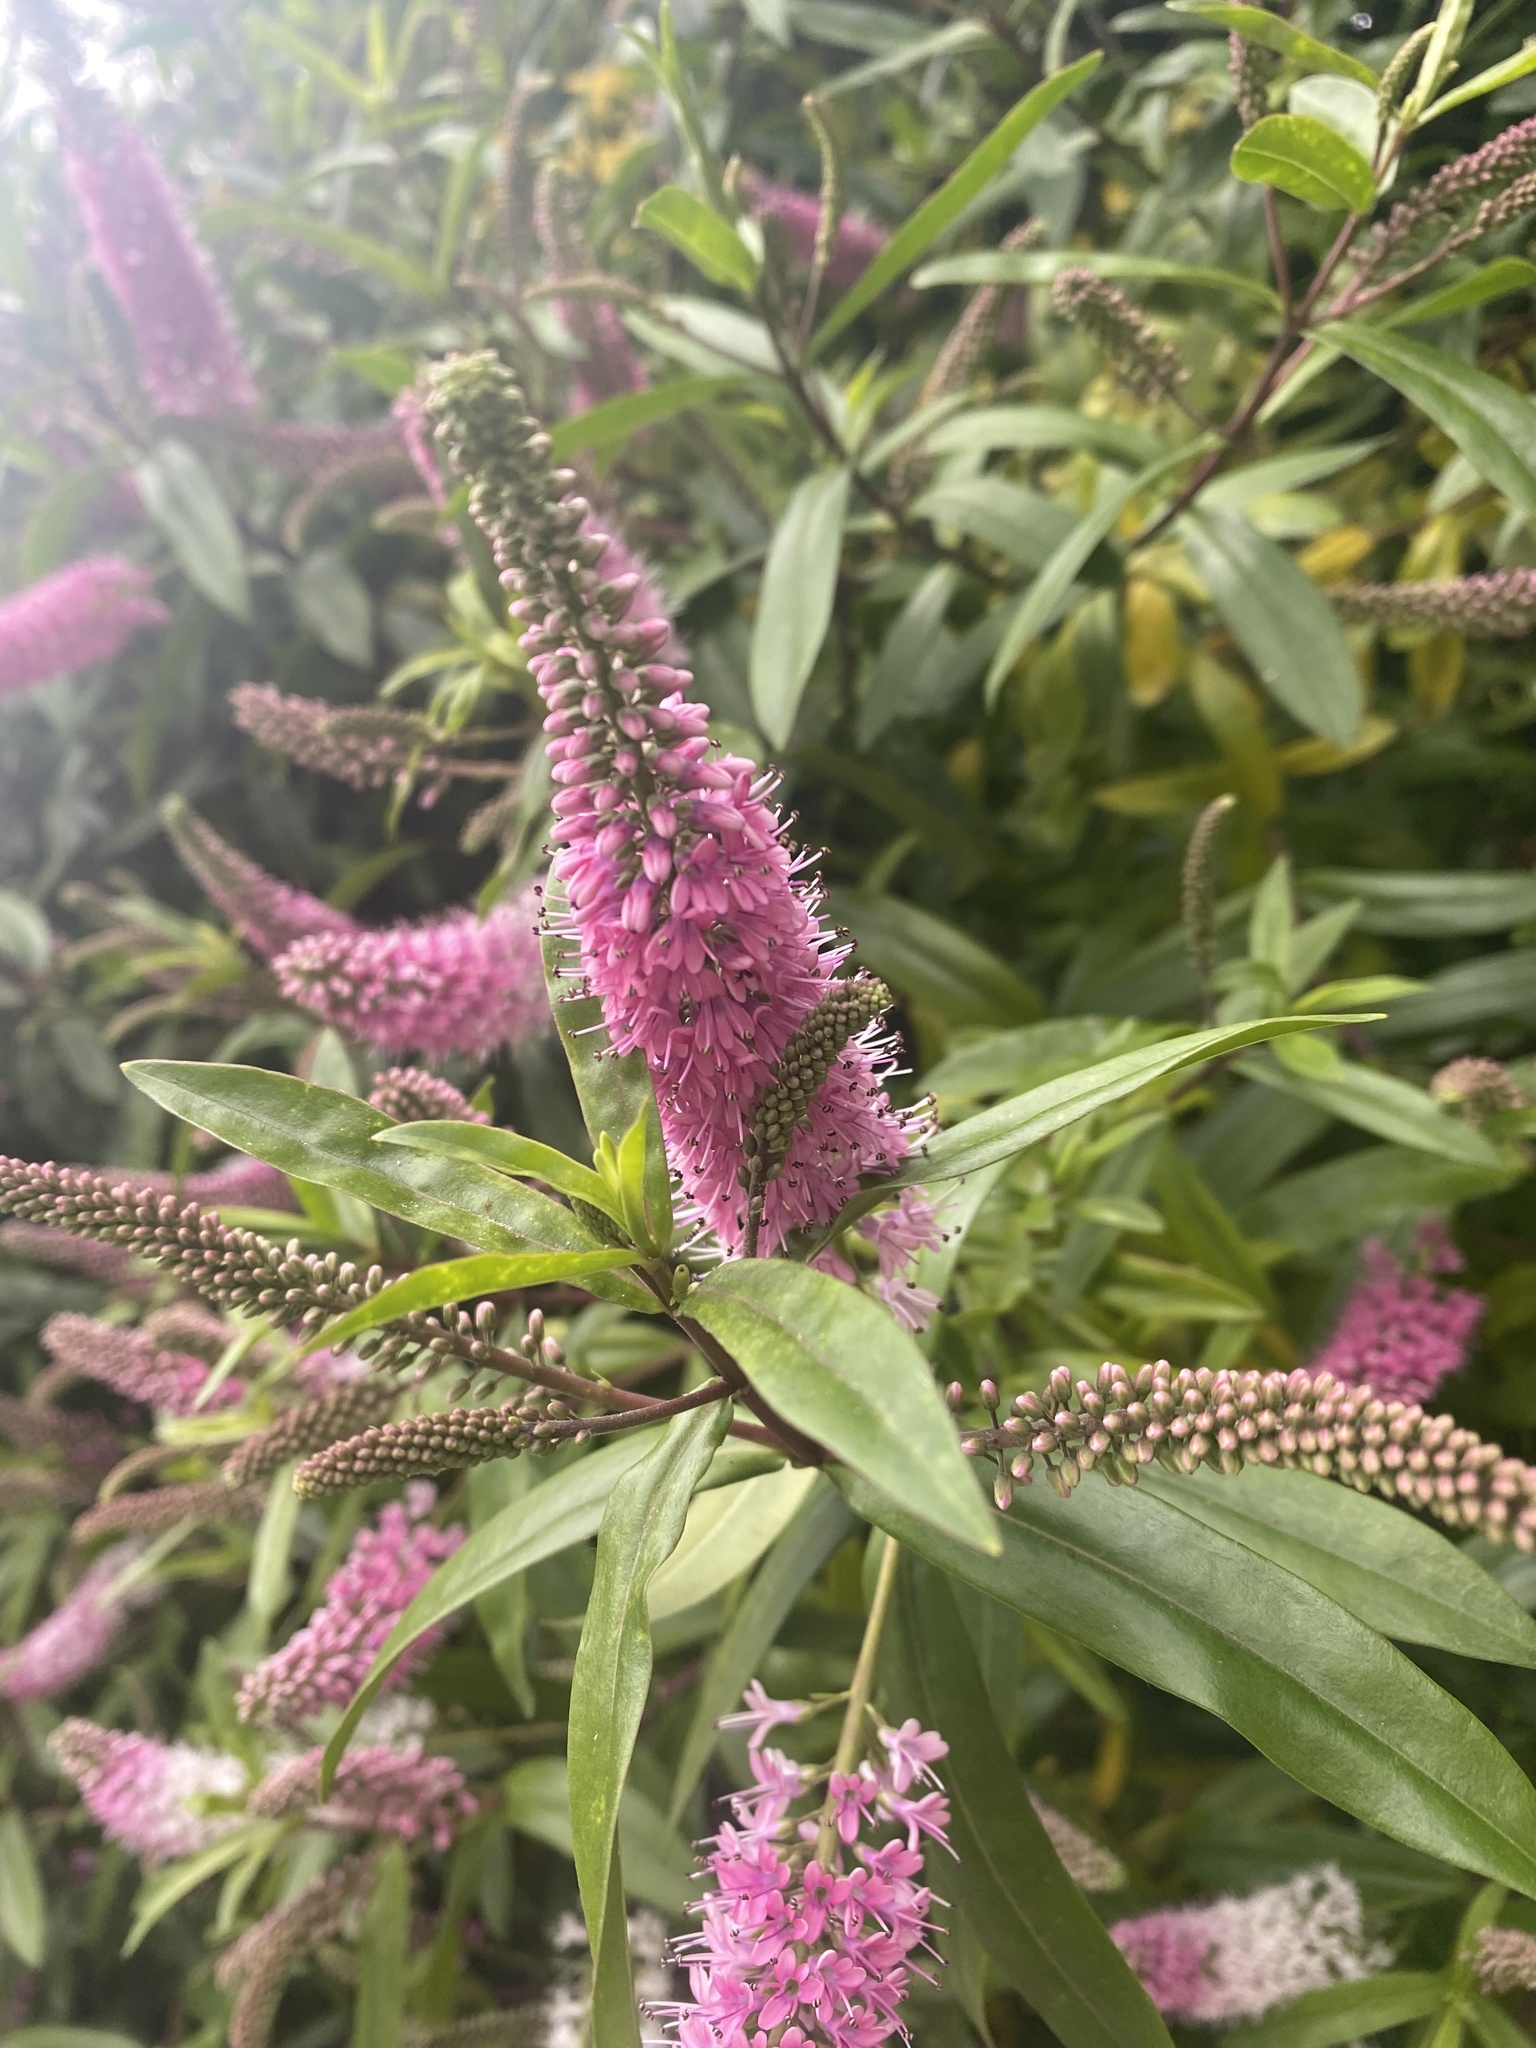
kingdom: Plantae
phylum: Tracheophyta
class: Magnoliopsida
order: Lamiales
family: Plantaginaceae
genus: Veronica
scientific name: Veronica andersonii
